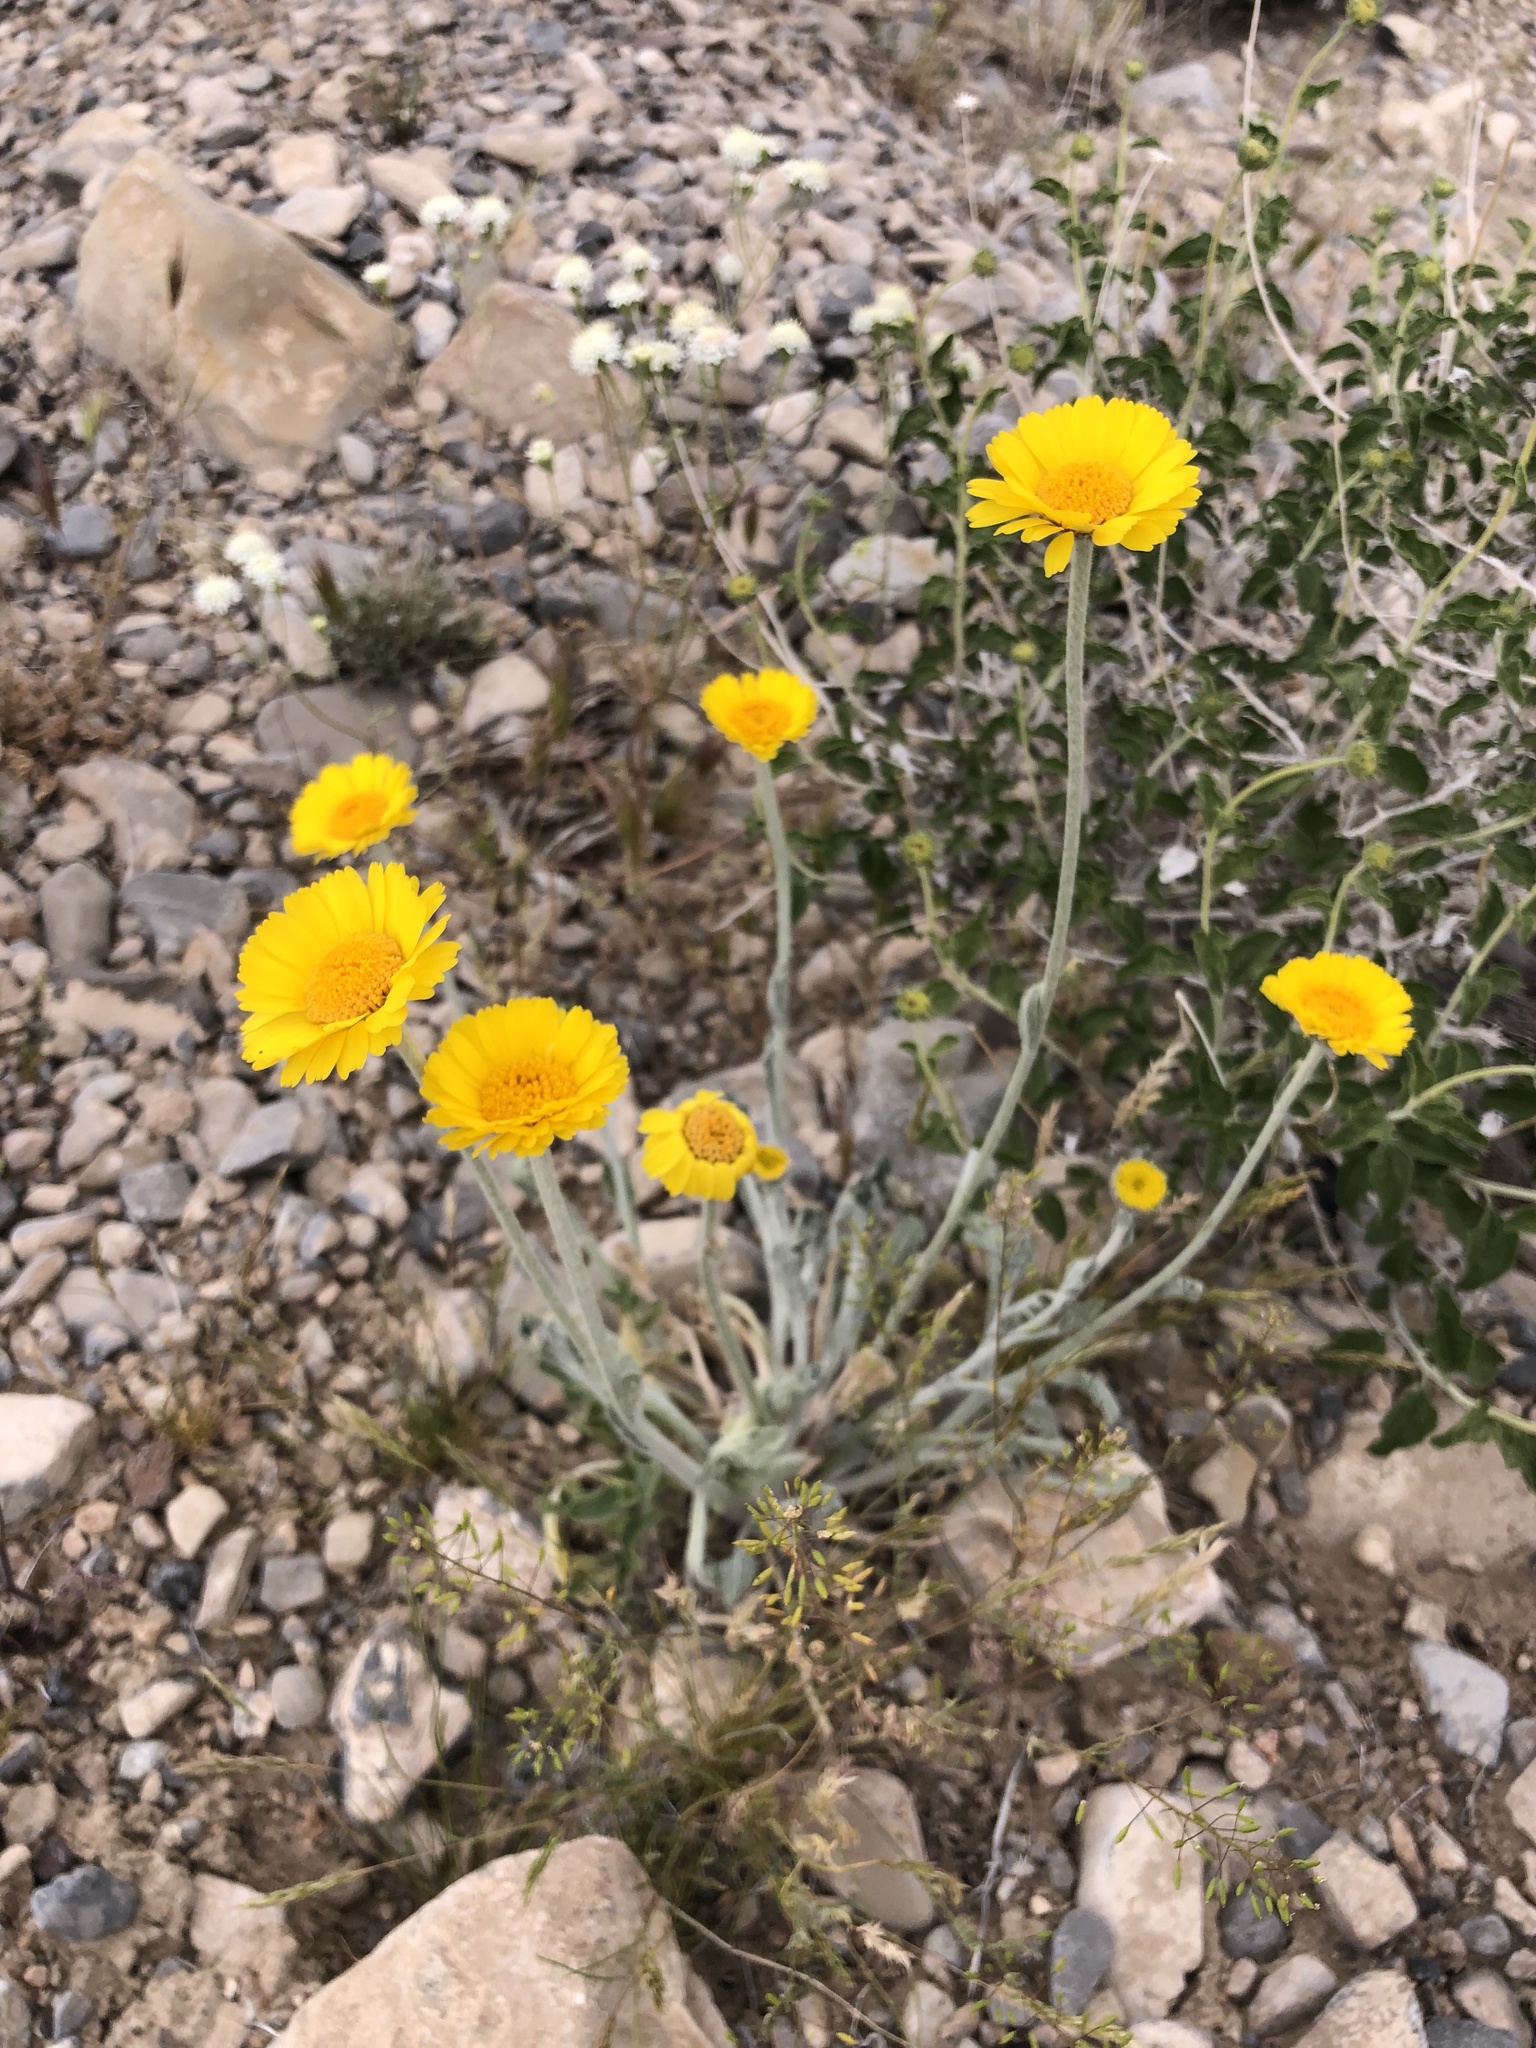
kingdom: Plantae
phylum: Tracheophyta
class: Magnoliopsida
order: Asterales
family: Asteraceae
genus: Baileya
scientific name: Baileya multiradiata
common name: Desert-marigold
